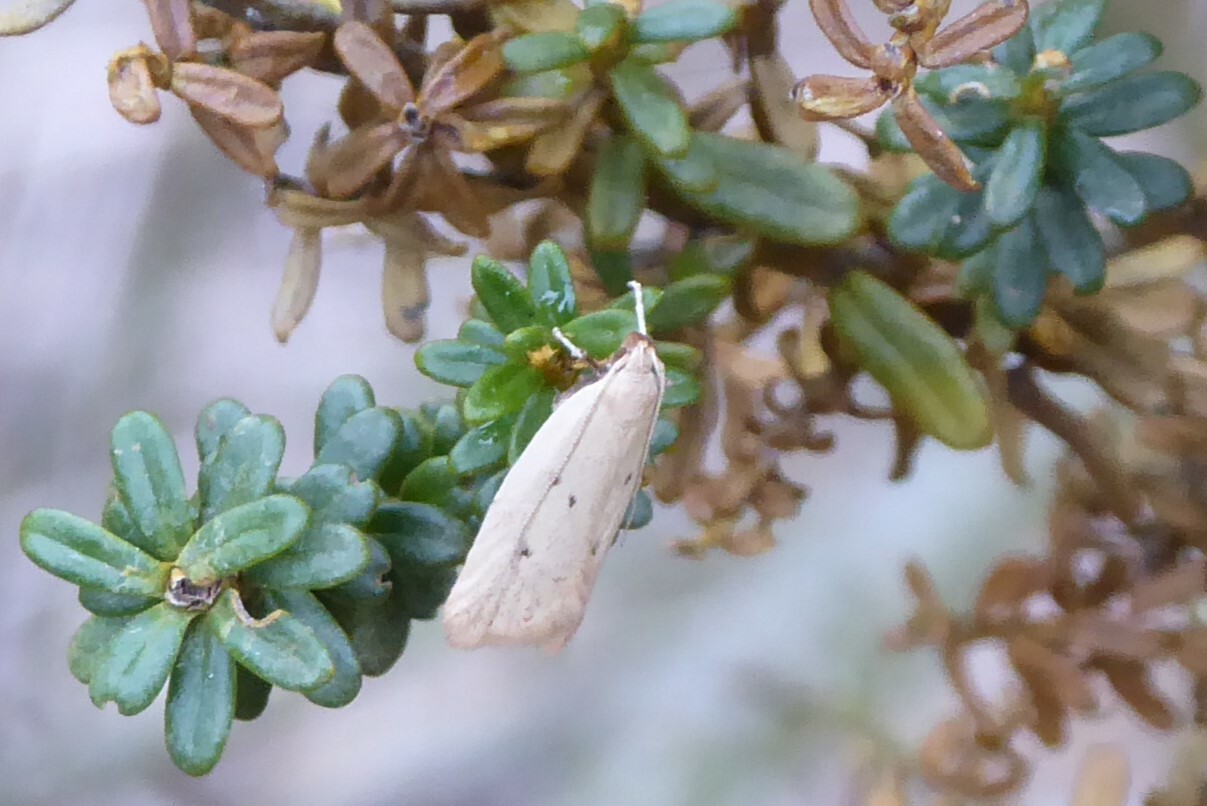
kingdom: Animalia
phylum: Arthropoda
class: Insecta
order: Lepidoptera
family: Oecophoridae
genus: Gymnobathra
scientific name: Gymnobathra sarcoxantha
